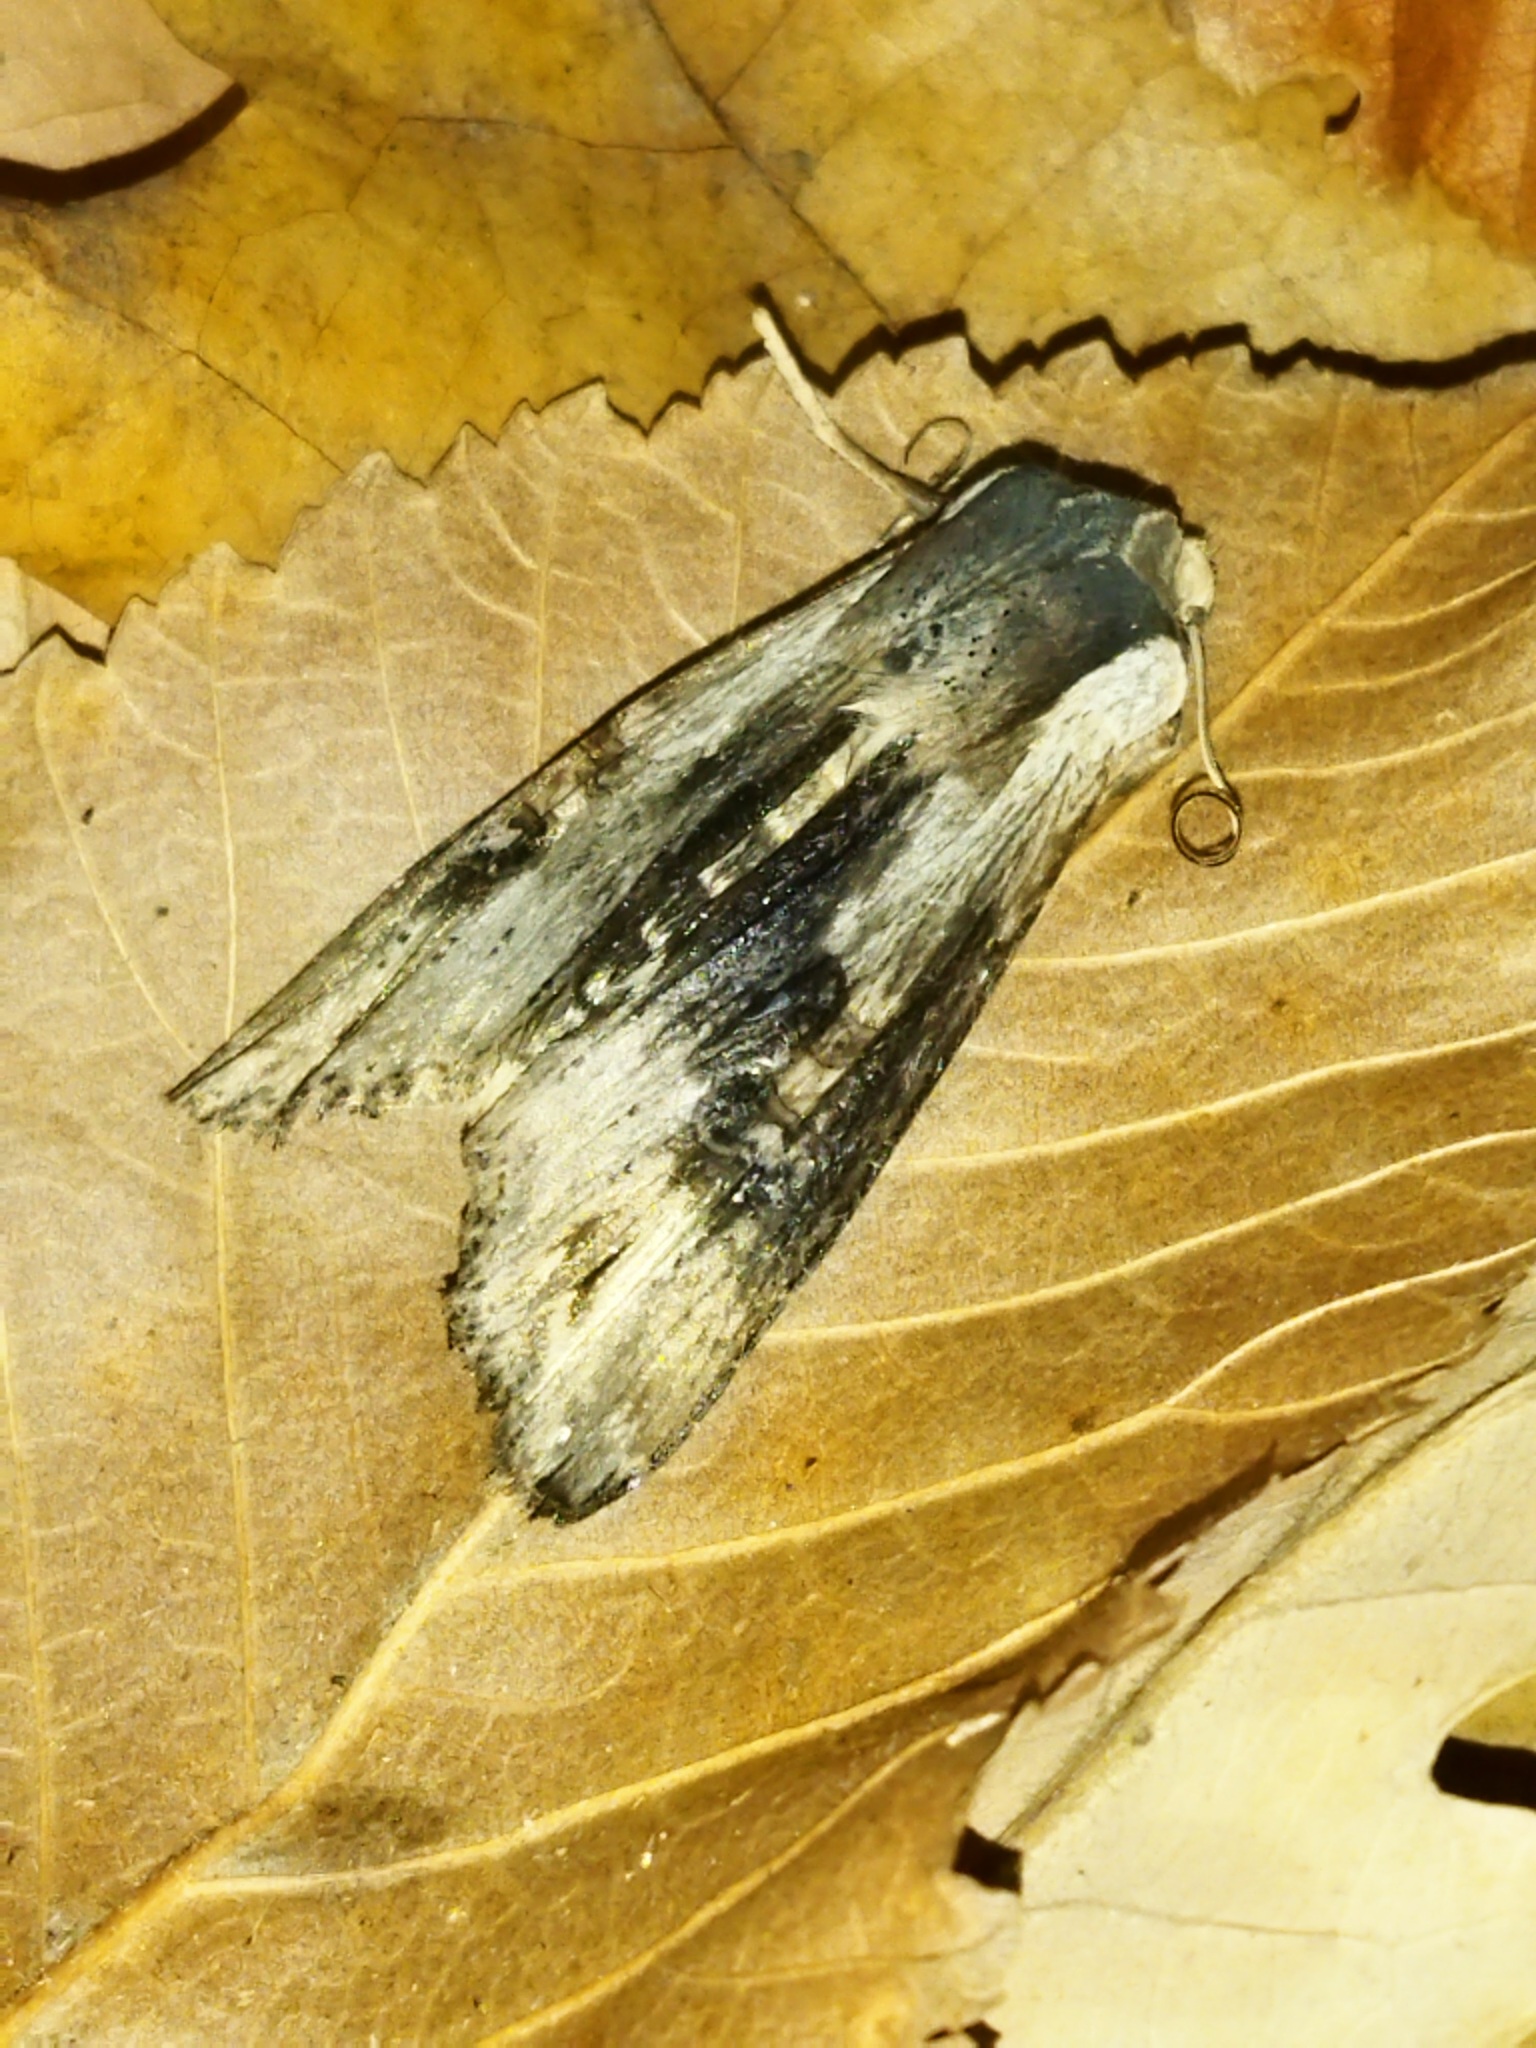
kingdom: Animalia
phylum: Arthropoda
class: Insecta
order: Lepidoptera
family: Noctuidae
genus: Xylena
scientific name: Xylena exsoleta
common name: Sword-grass
